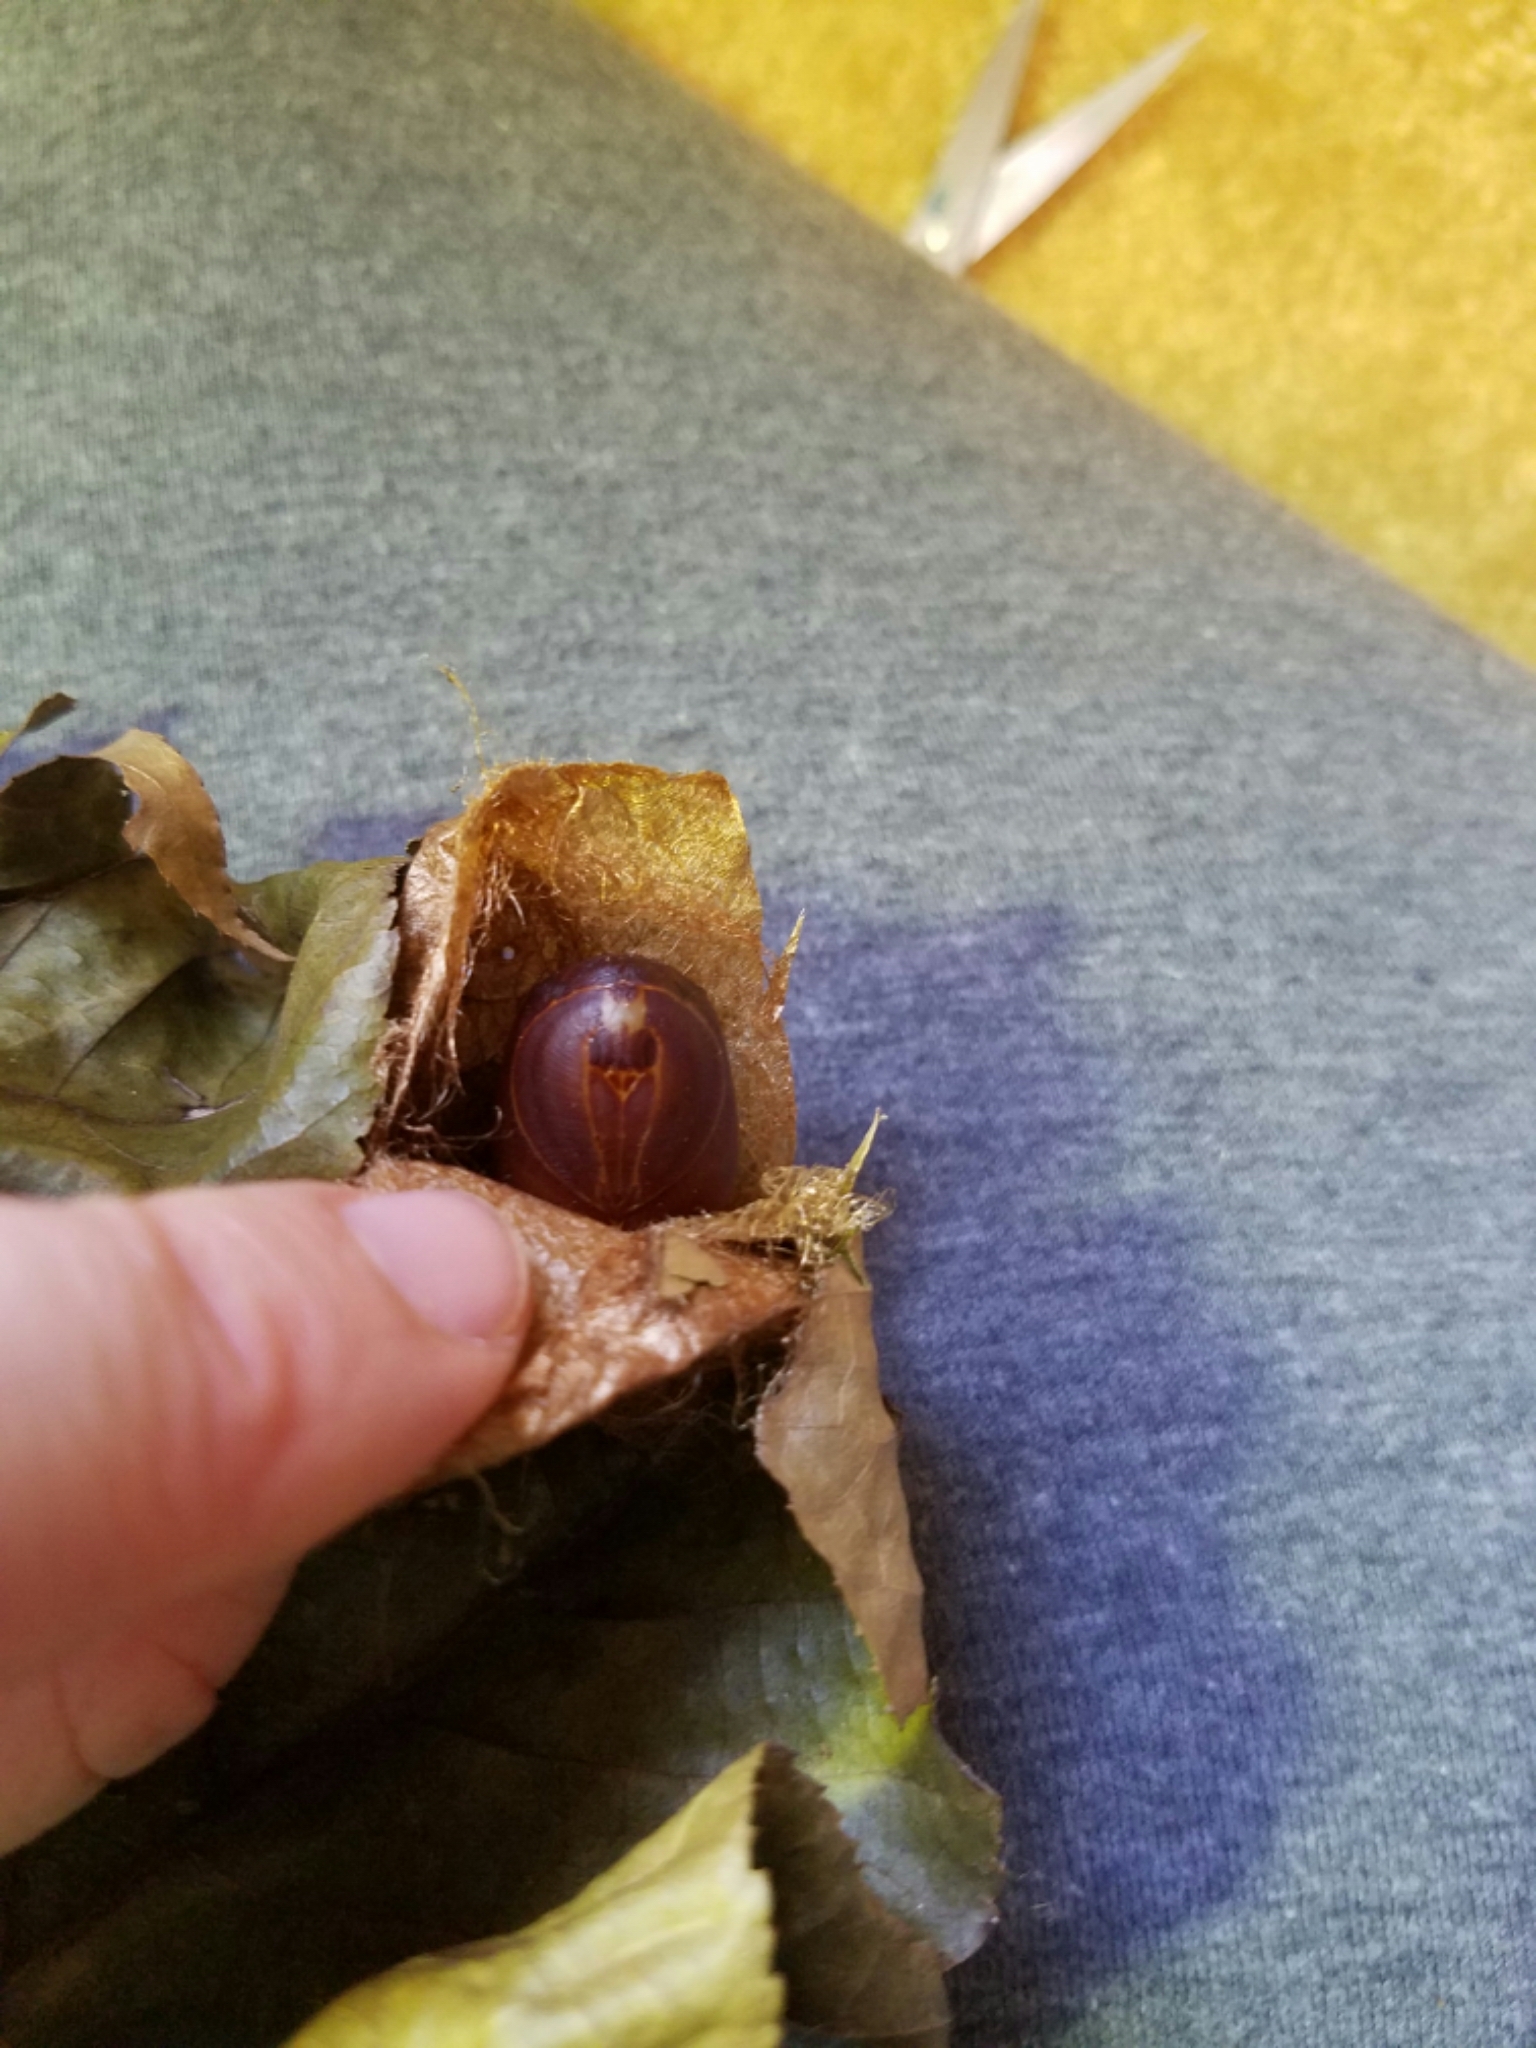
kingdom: Animalia
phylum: Arthropoda
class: Insecta
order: Lepidoptera
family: Saturniidae
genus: Actias
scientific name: Actias luna
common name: Luna moth
